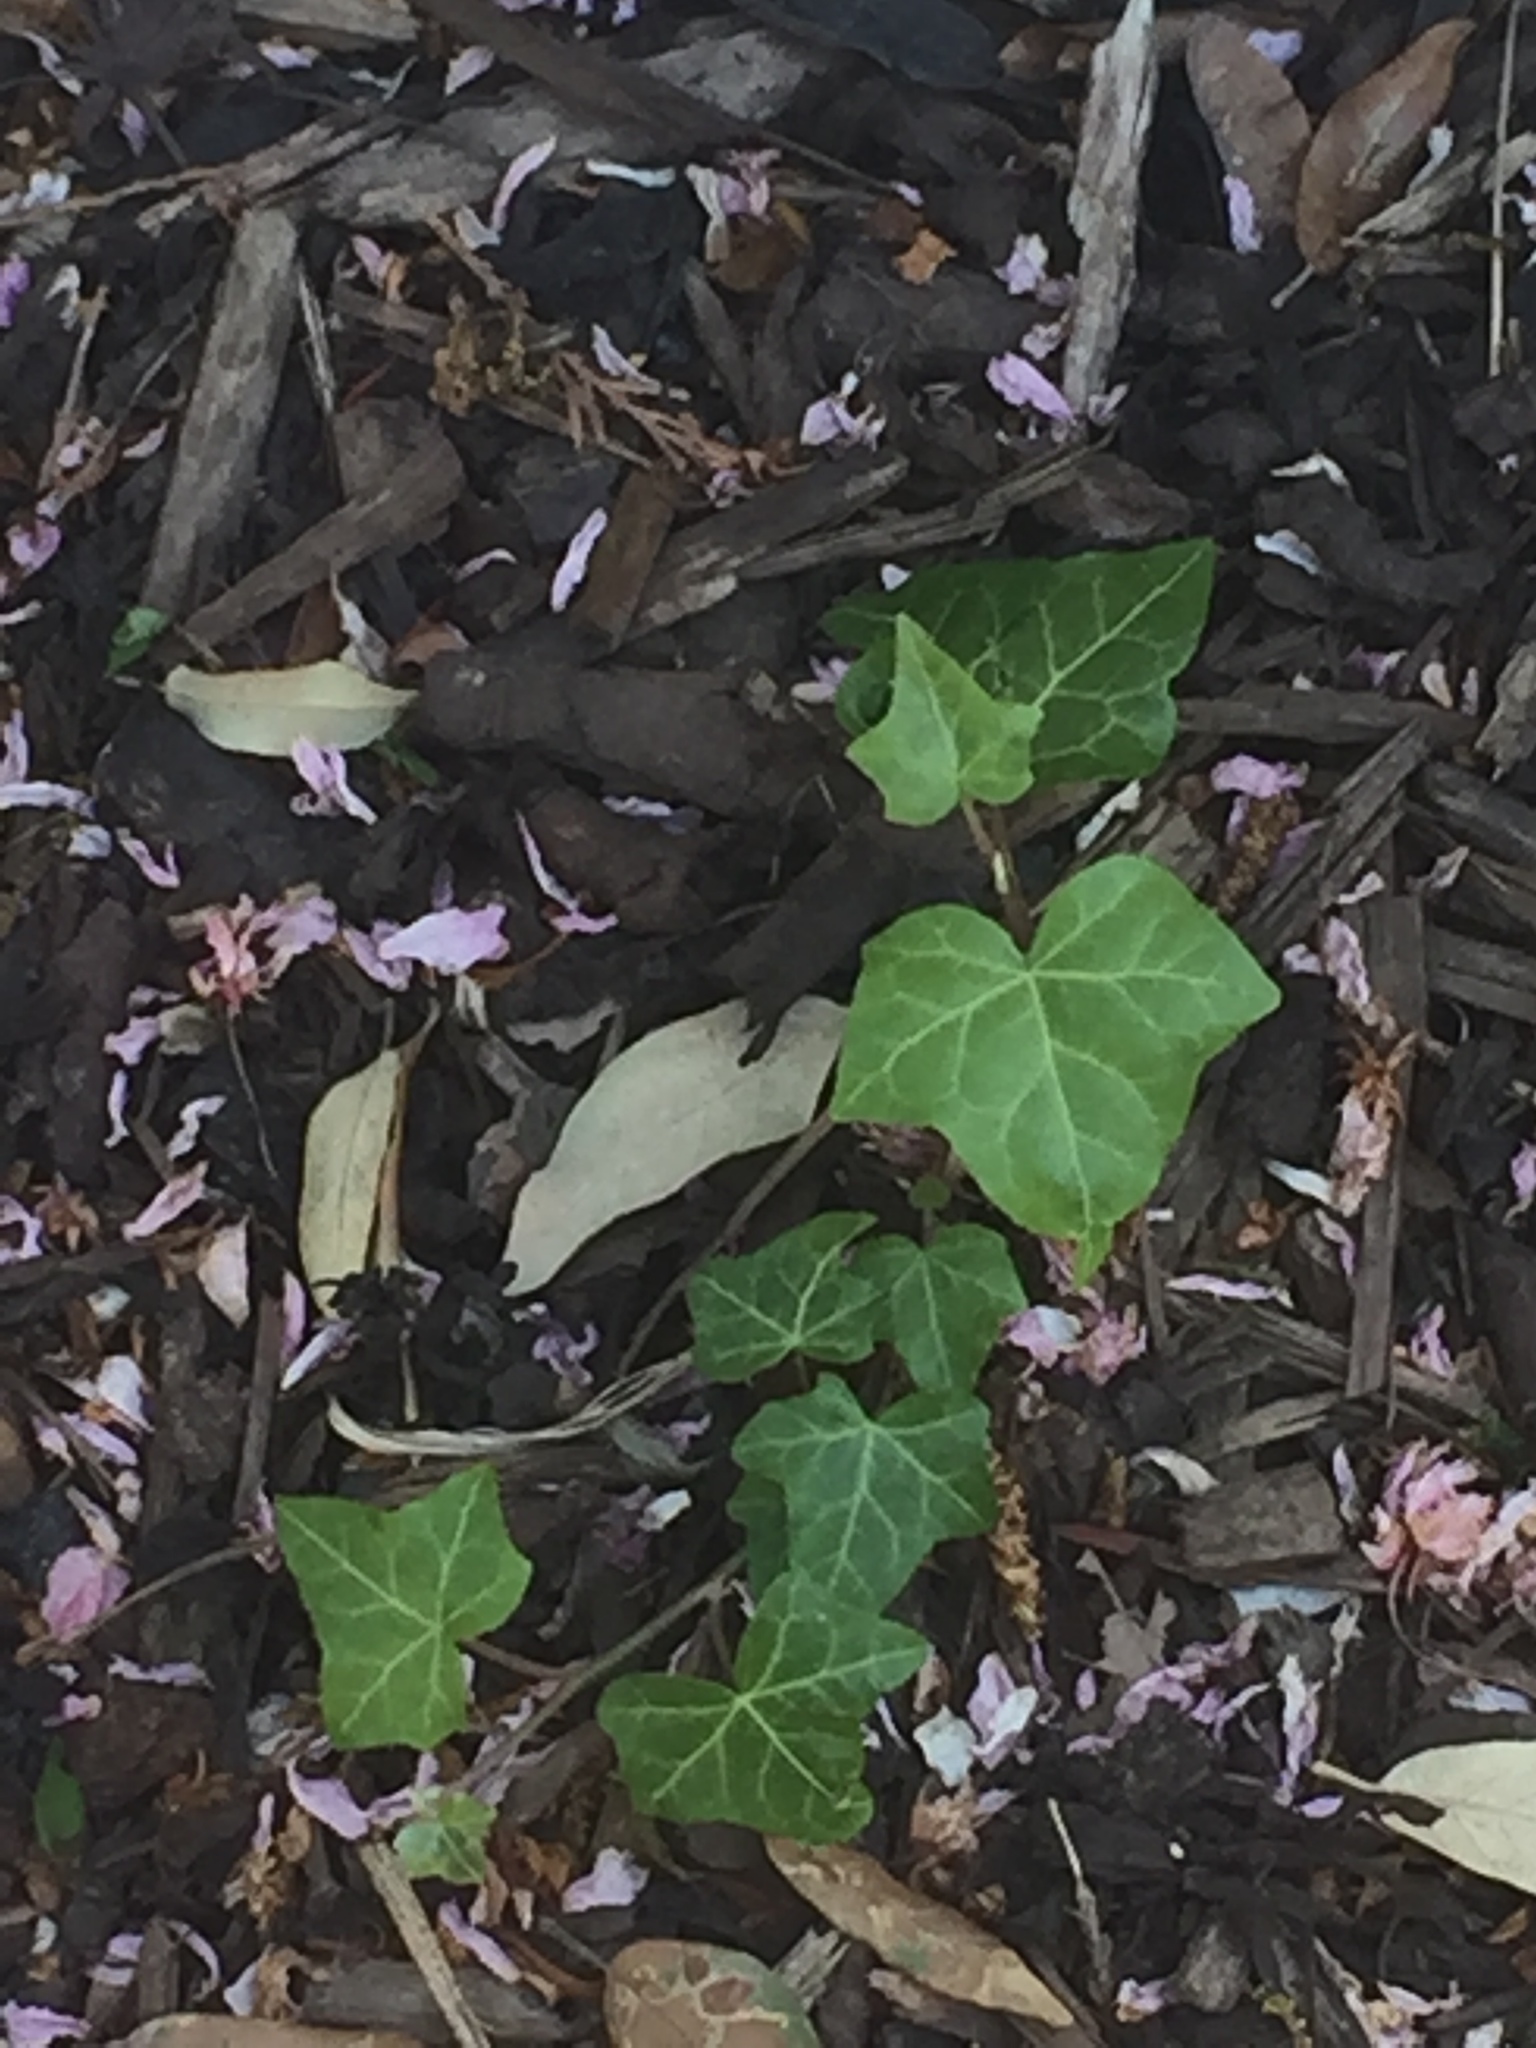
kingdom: Plantae
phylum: Tracheophyta
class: Magnoliopsida
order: Apiales
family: Araliaceae
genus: Hedera
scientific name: Hedera helix
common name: Ivy
